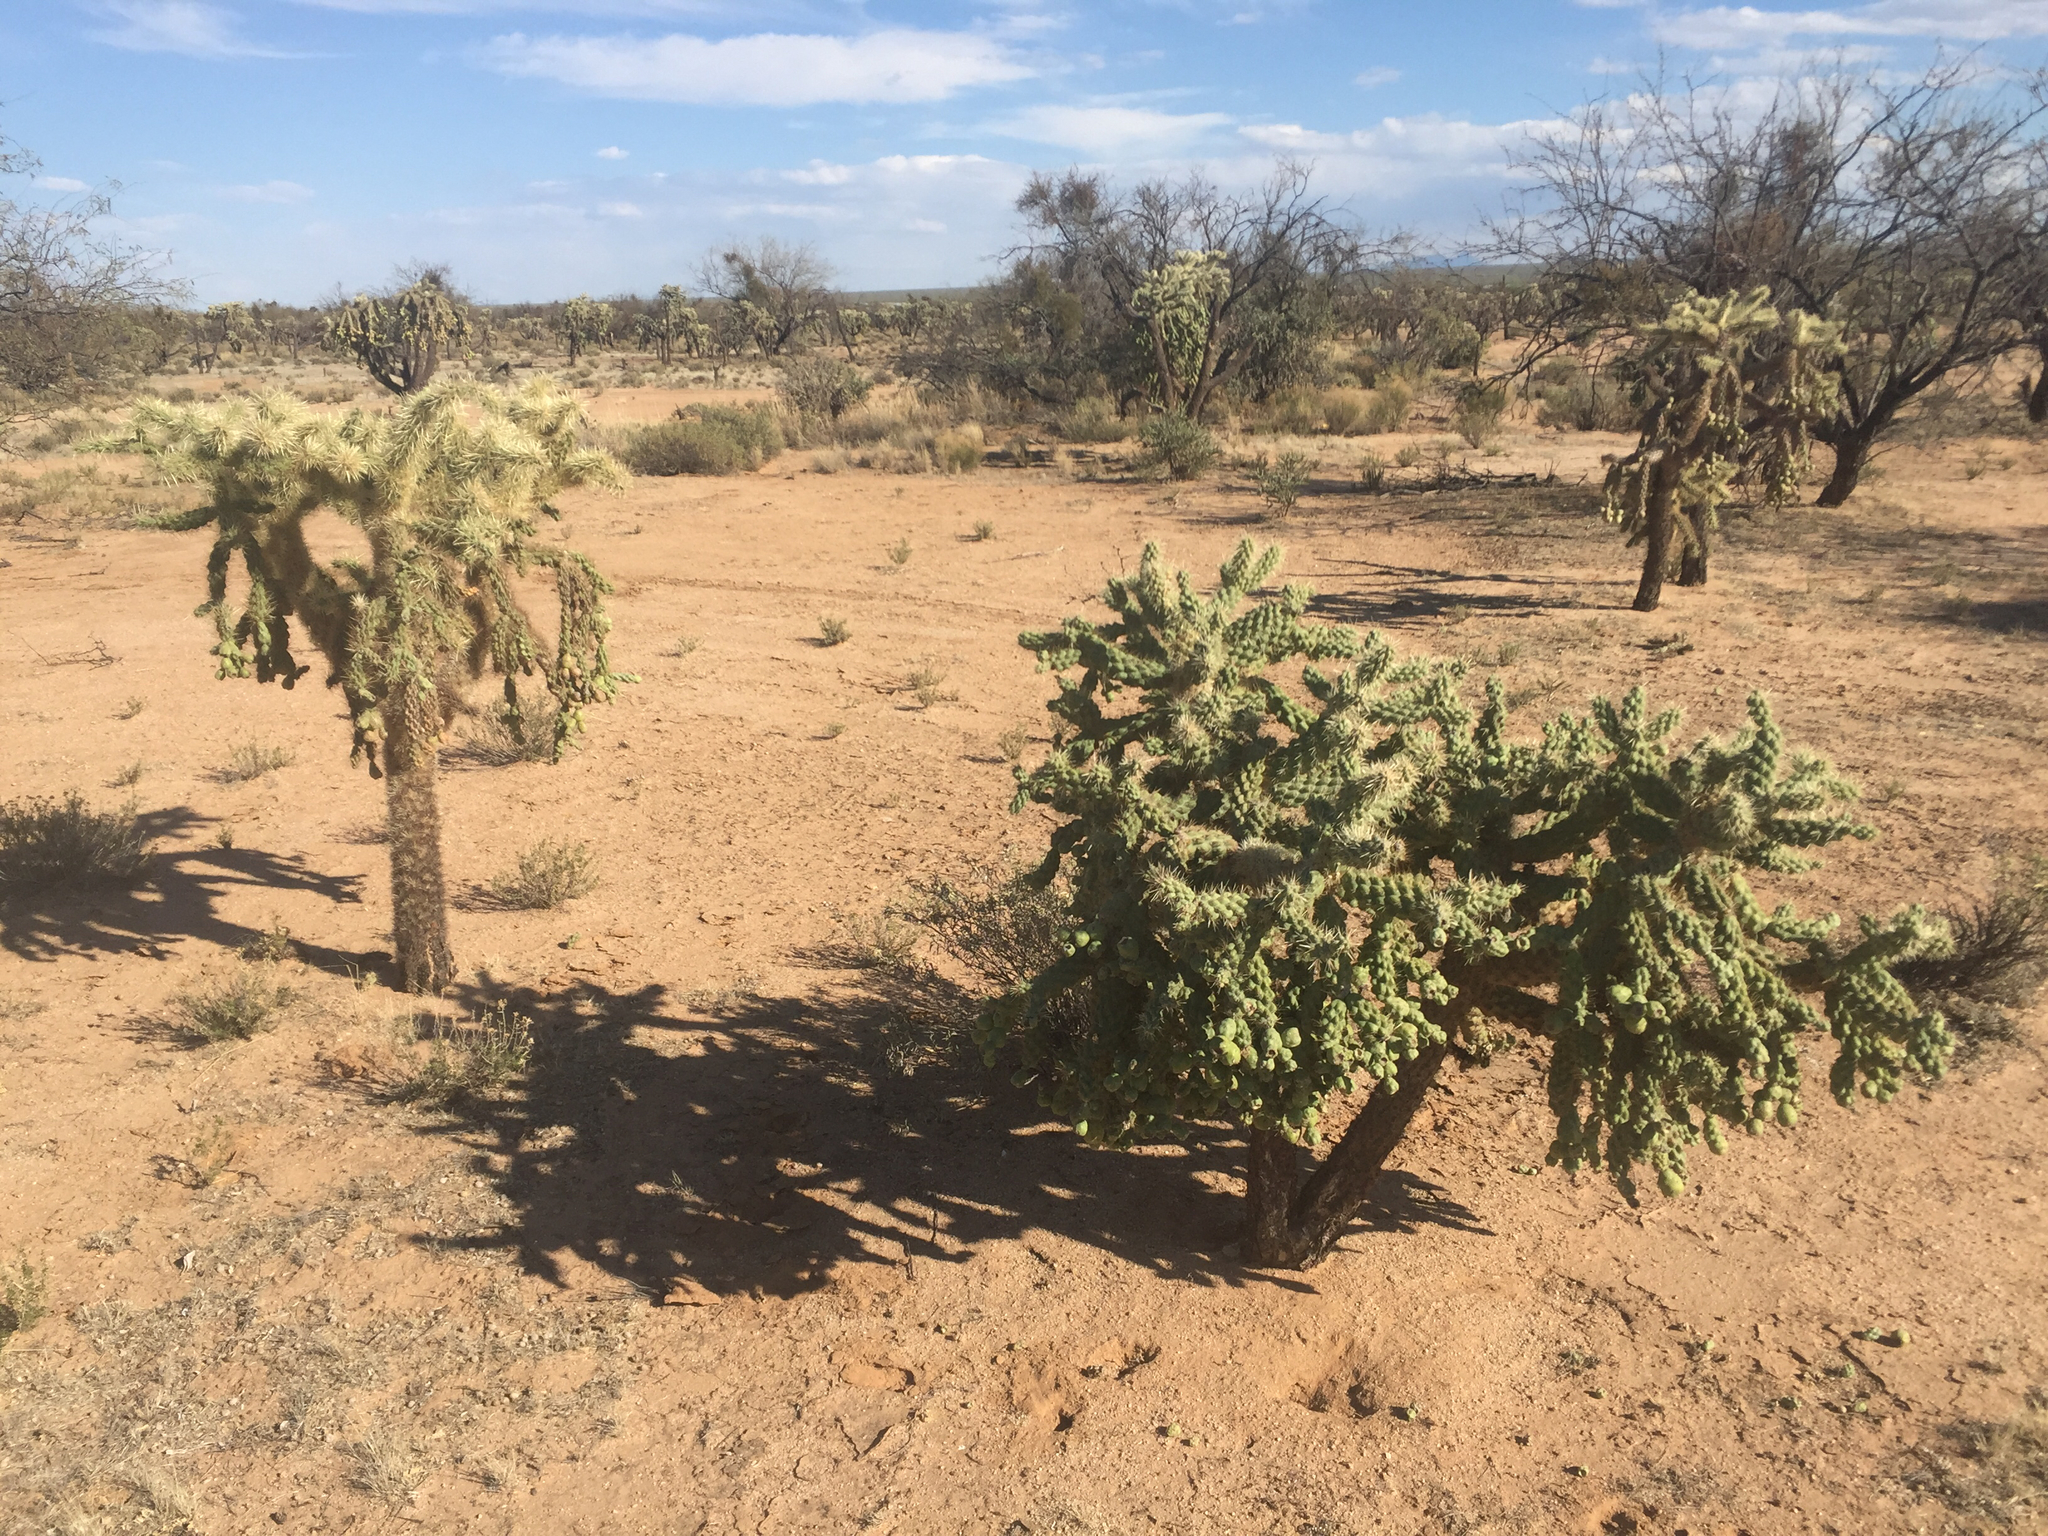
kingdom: Plantae
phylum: Tracheophyta
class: Magnoliopsida
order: Caryophyllales
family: Cactaceae
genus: Cylindropuntia
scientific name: Cylindropuntia fulgida
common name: Jumping cholla
